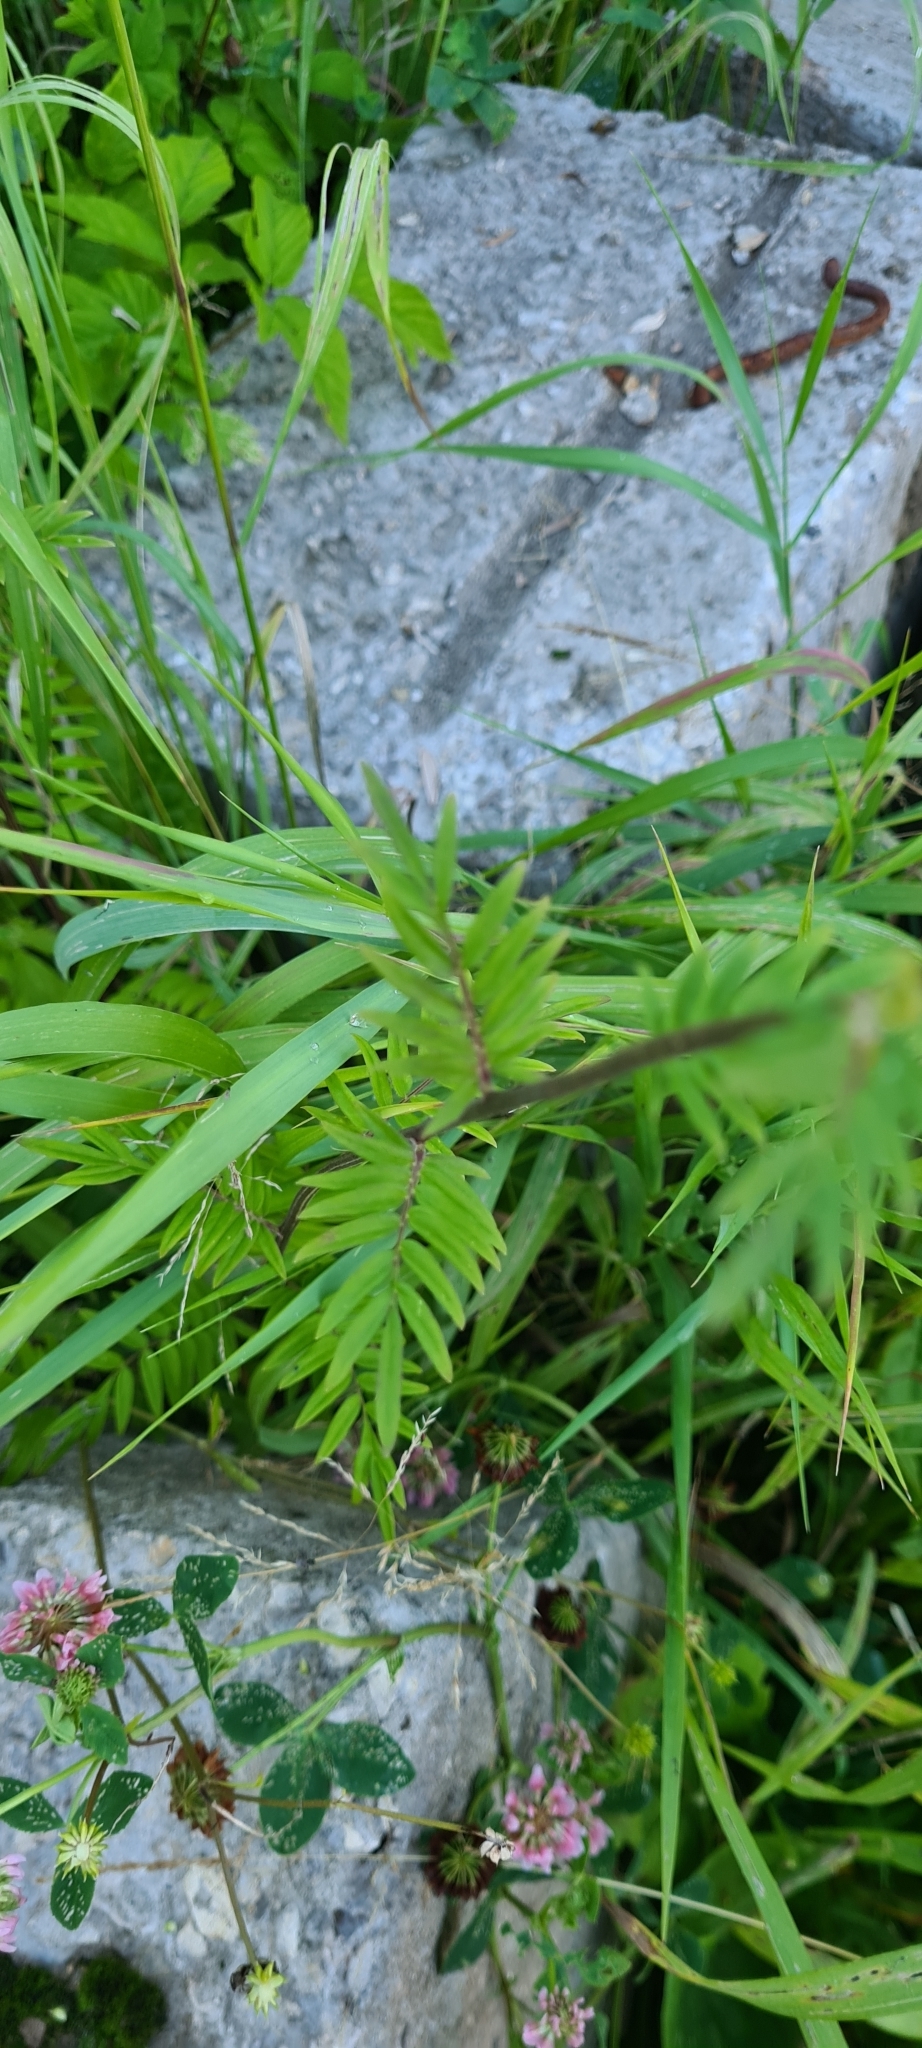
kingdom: Plantae
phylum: Tracheophyta
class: Magnoliopsida
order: Ericales
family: Polemoniaceae
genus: Polemonium
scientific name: Polemonium caeruleum
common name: Jacob's-ladder
